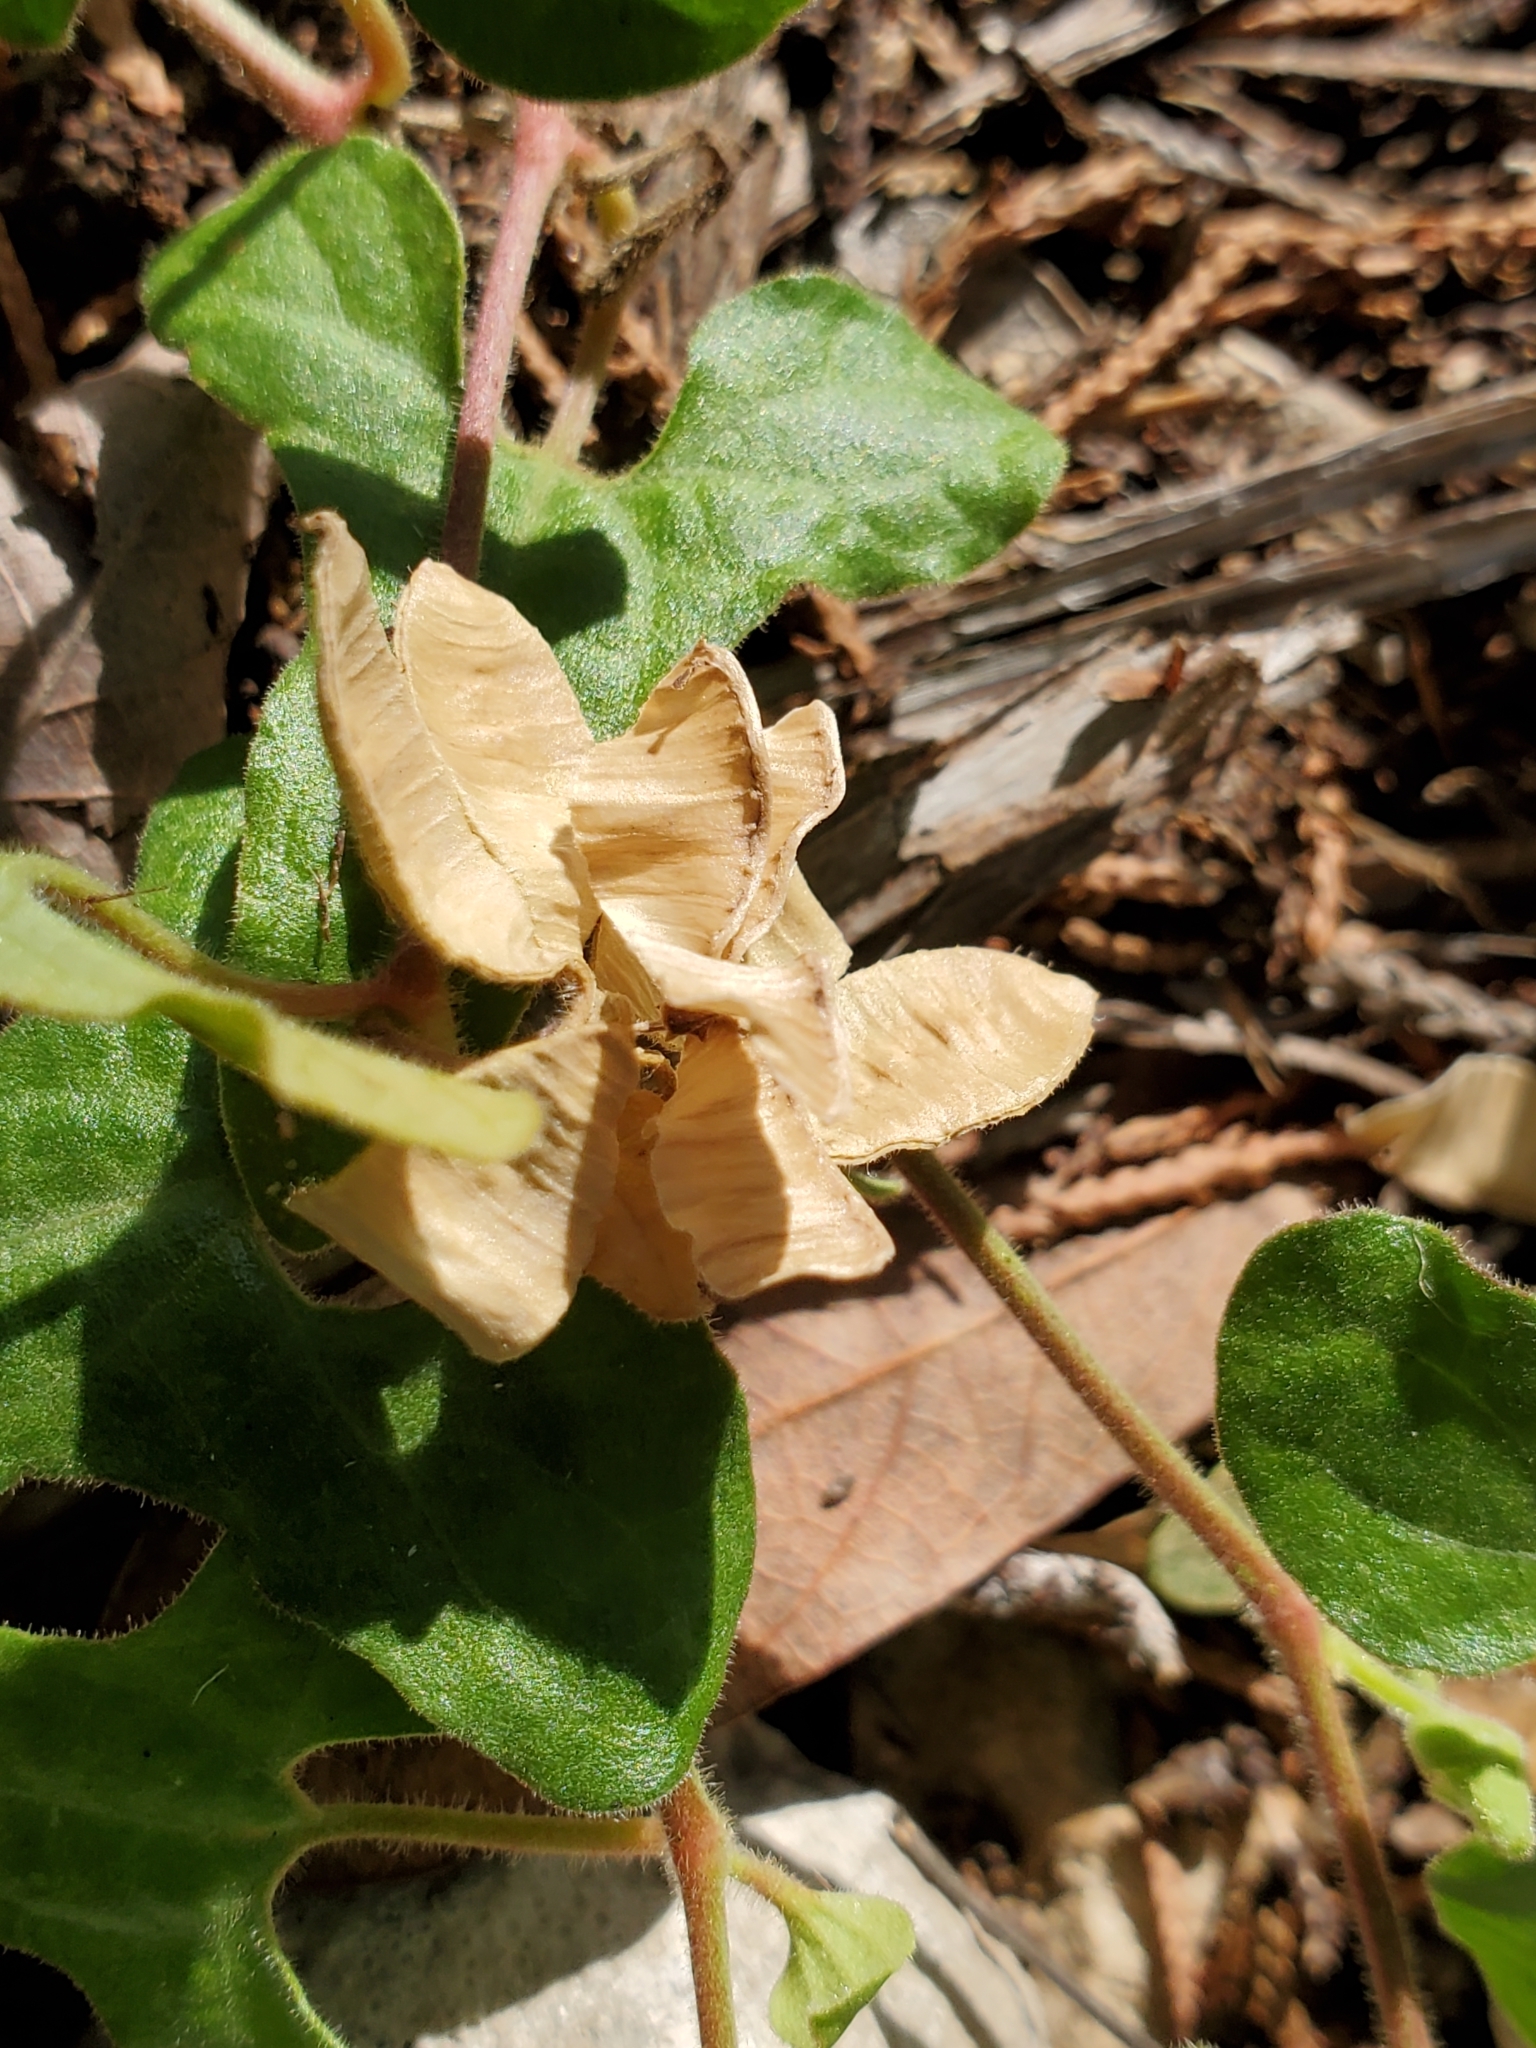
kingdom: Plantae
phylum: Tracheophyta
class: Magnoliopsida
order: Piperales
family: Aristolochiaceae
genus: Aristolochia
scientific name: Aristolochia coryi
